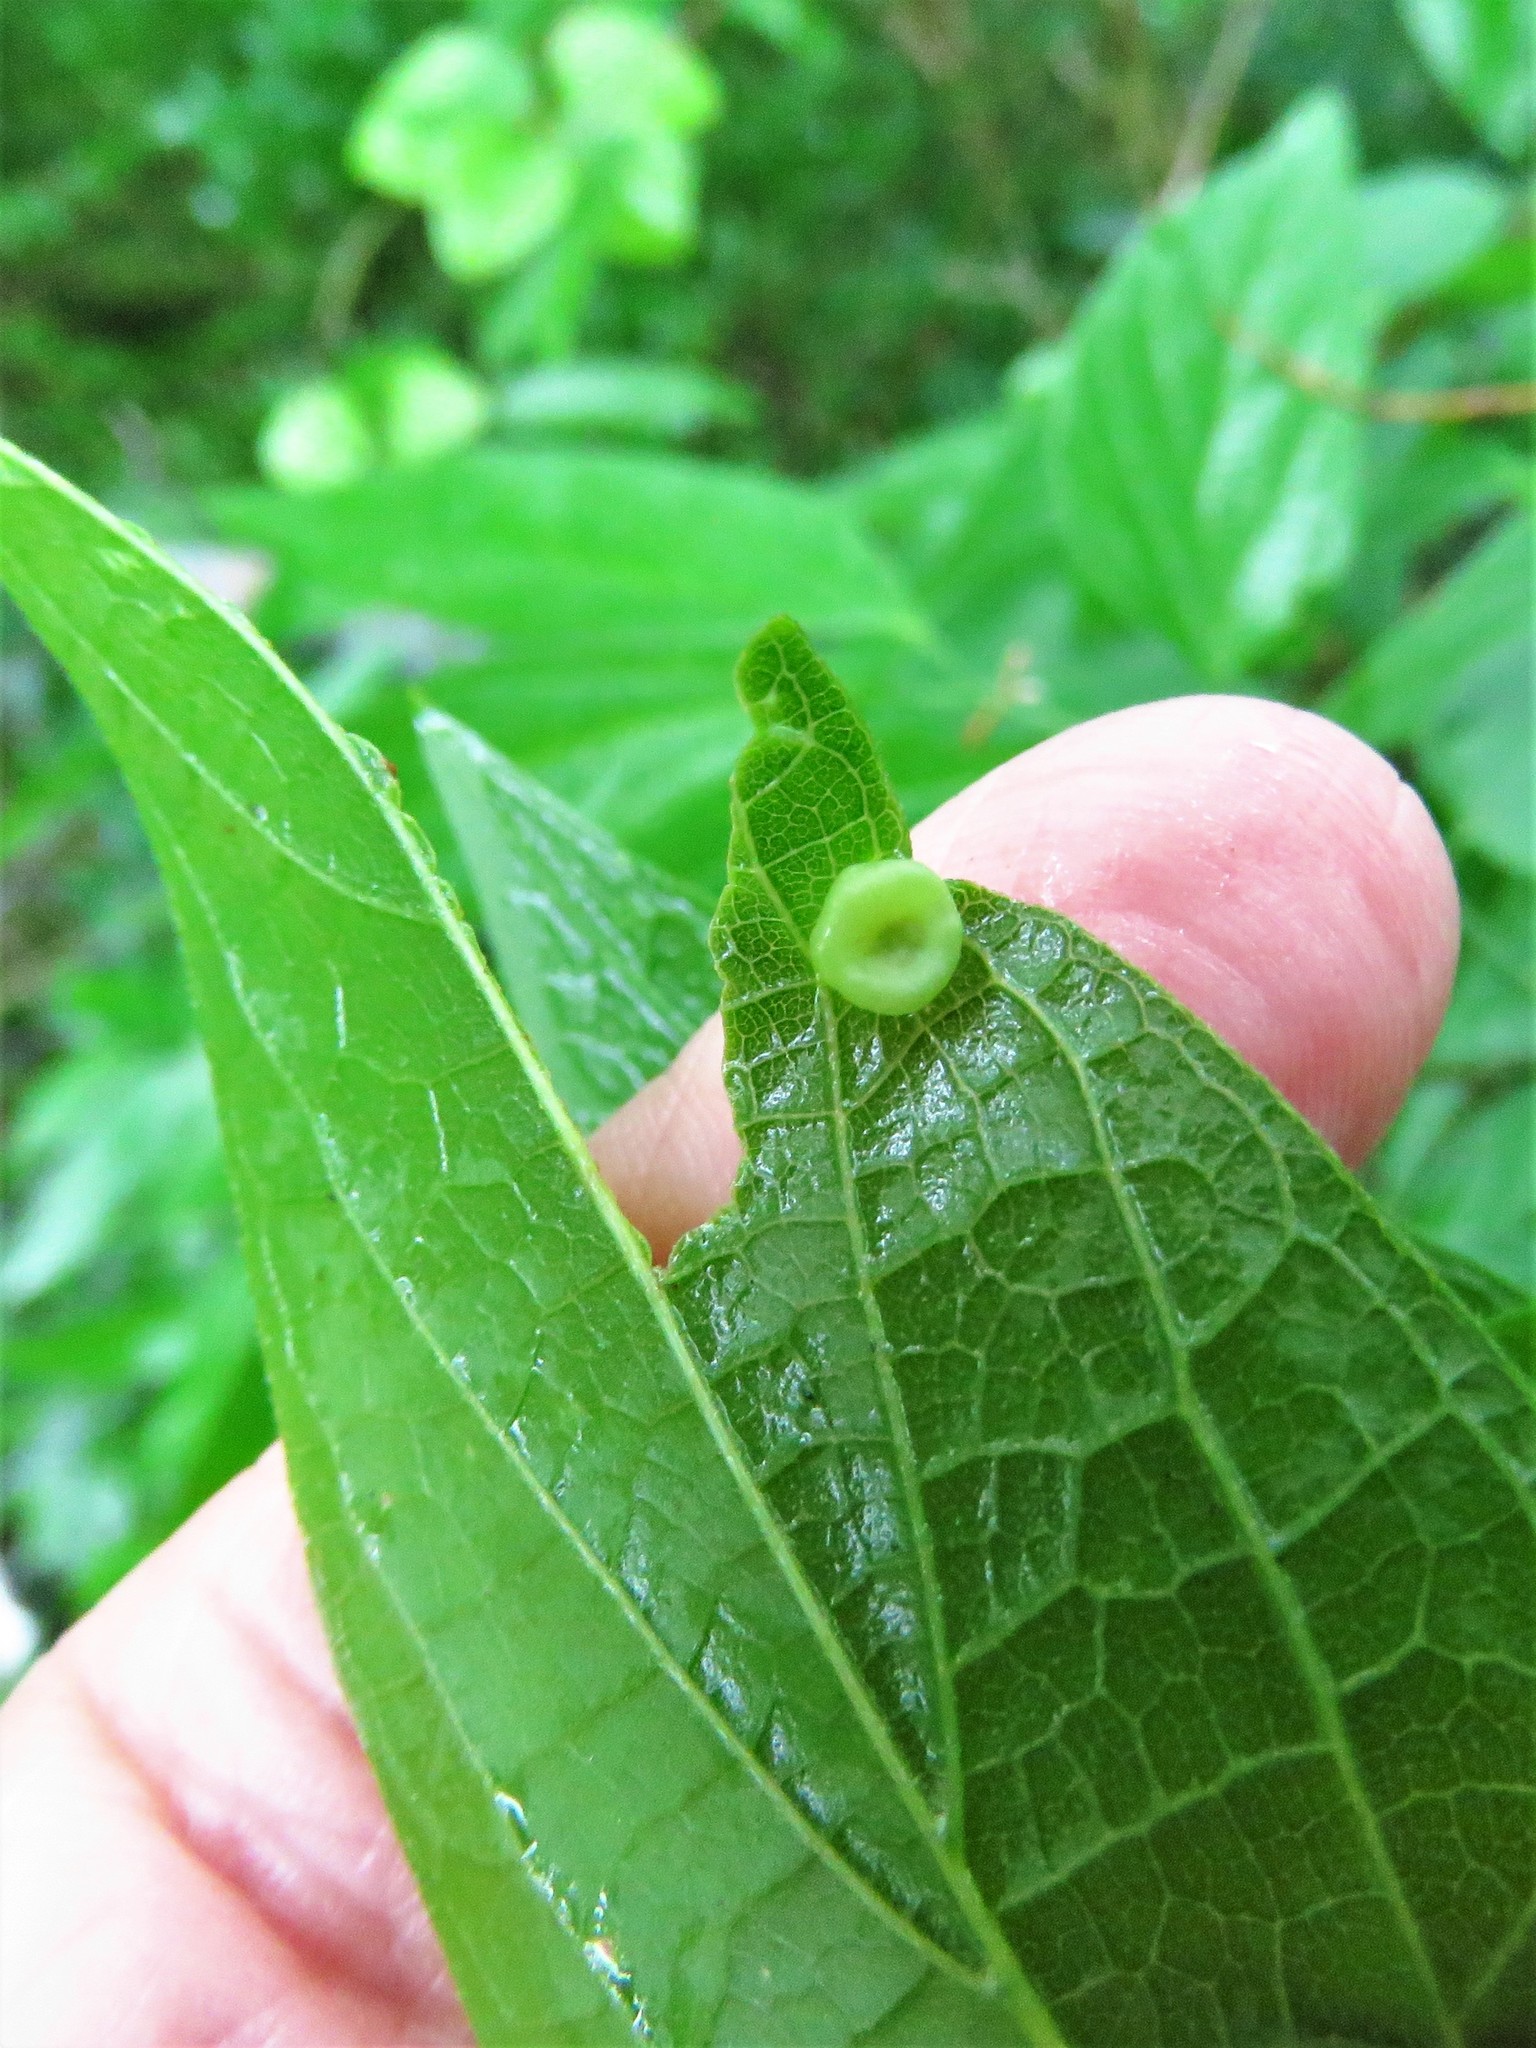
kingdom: Animalia
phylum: Arthropoda
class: Insecta
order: Hemiptera
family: Aphalaridae
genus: Pachypsylla
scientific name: Pachypsylla celtidismamma
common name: Hackberry nipplegall psyllid
